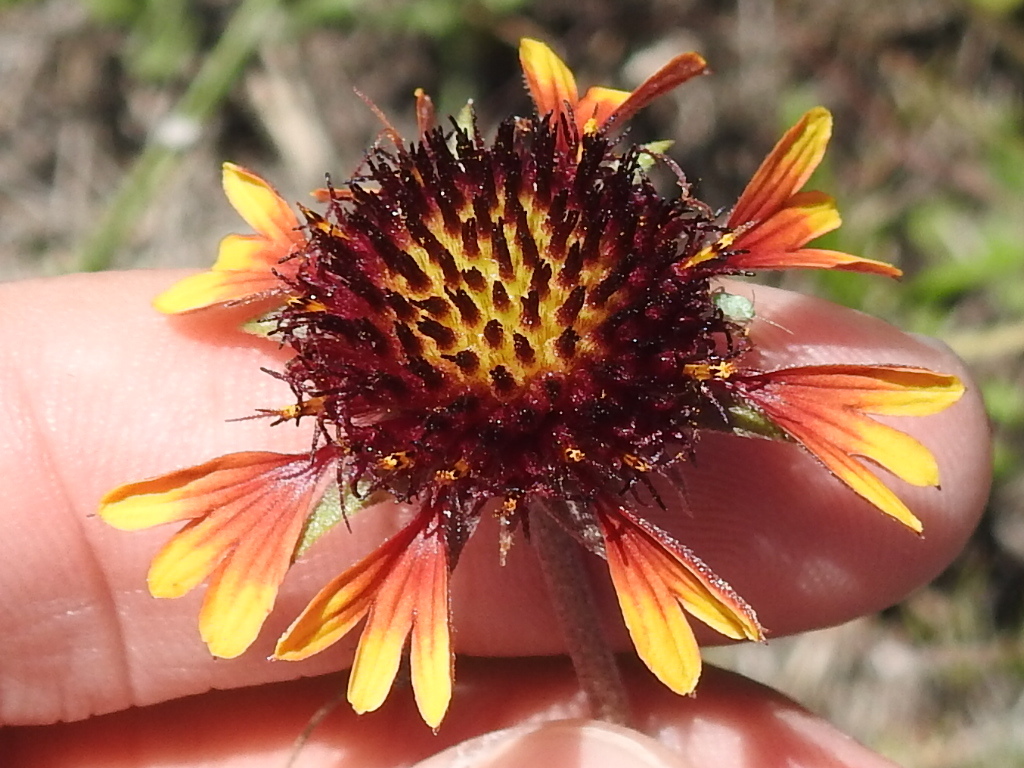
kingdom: Plantae
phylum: Tracheophyta
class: Magnoliopsida
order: Asterales
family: Asteraceae
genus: Gaillardia
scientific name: Gaillardia aestivalis
